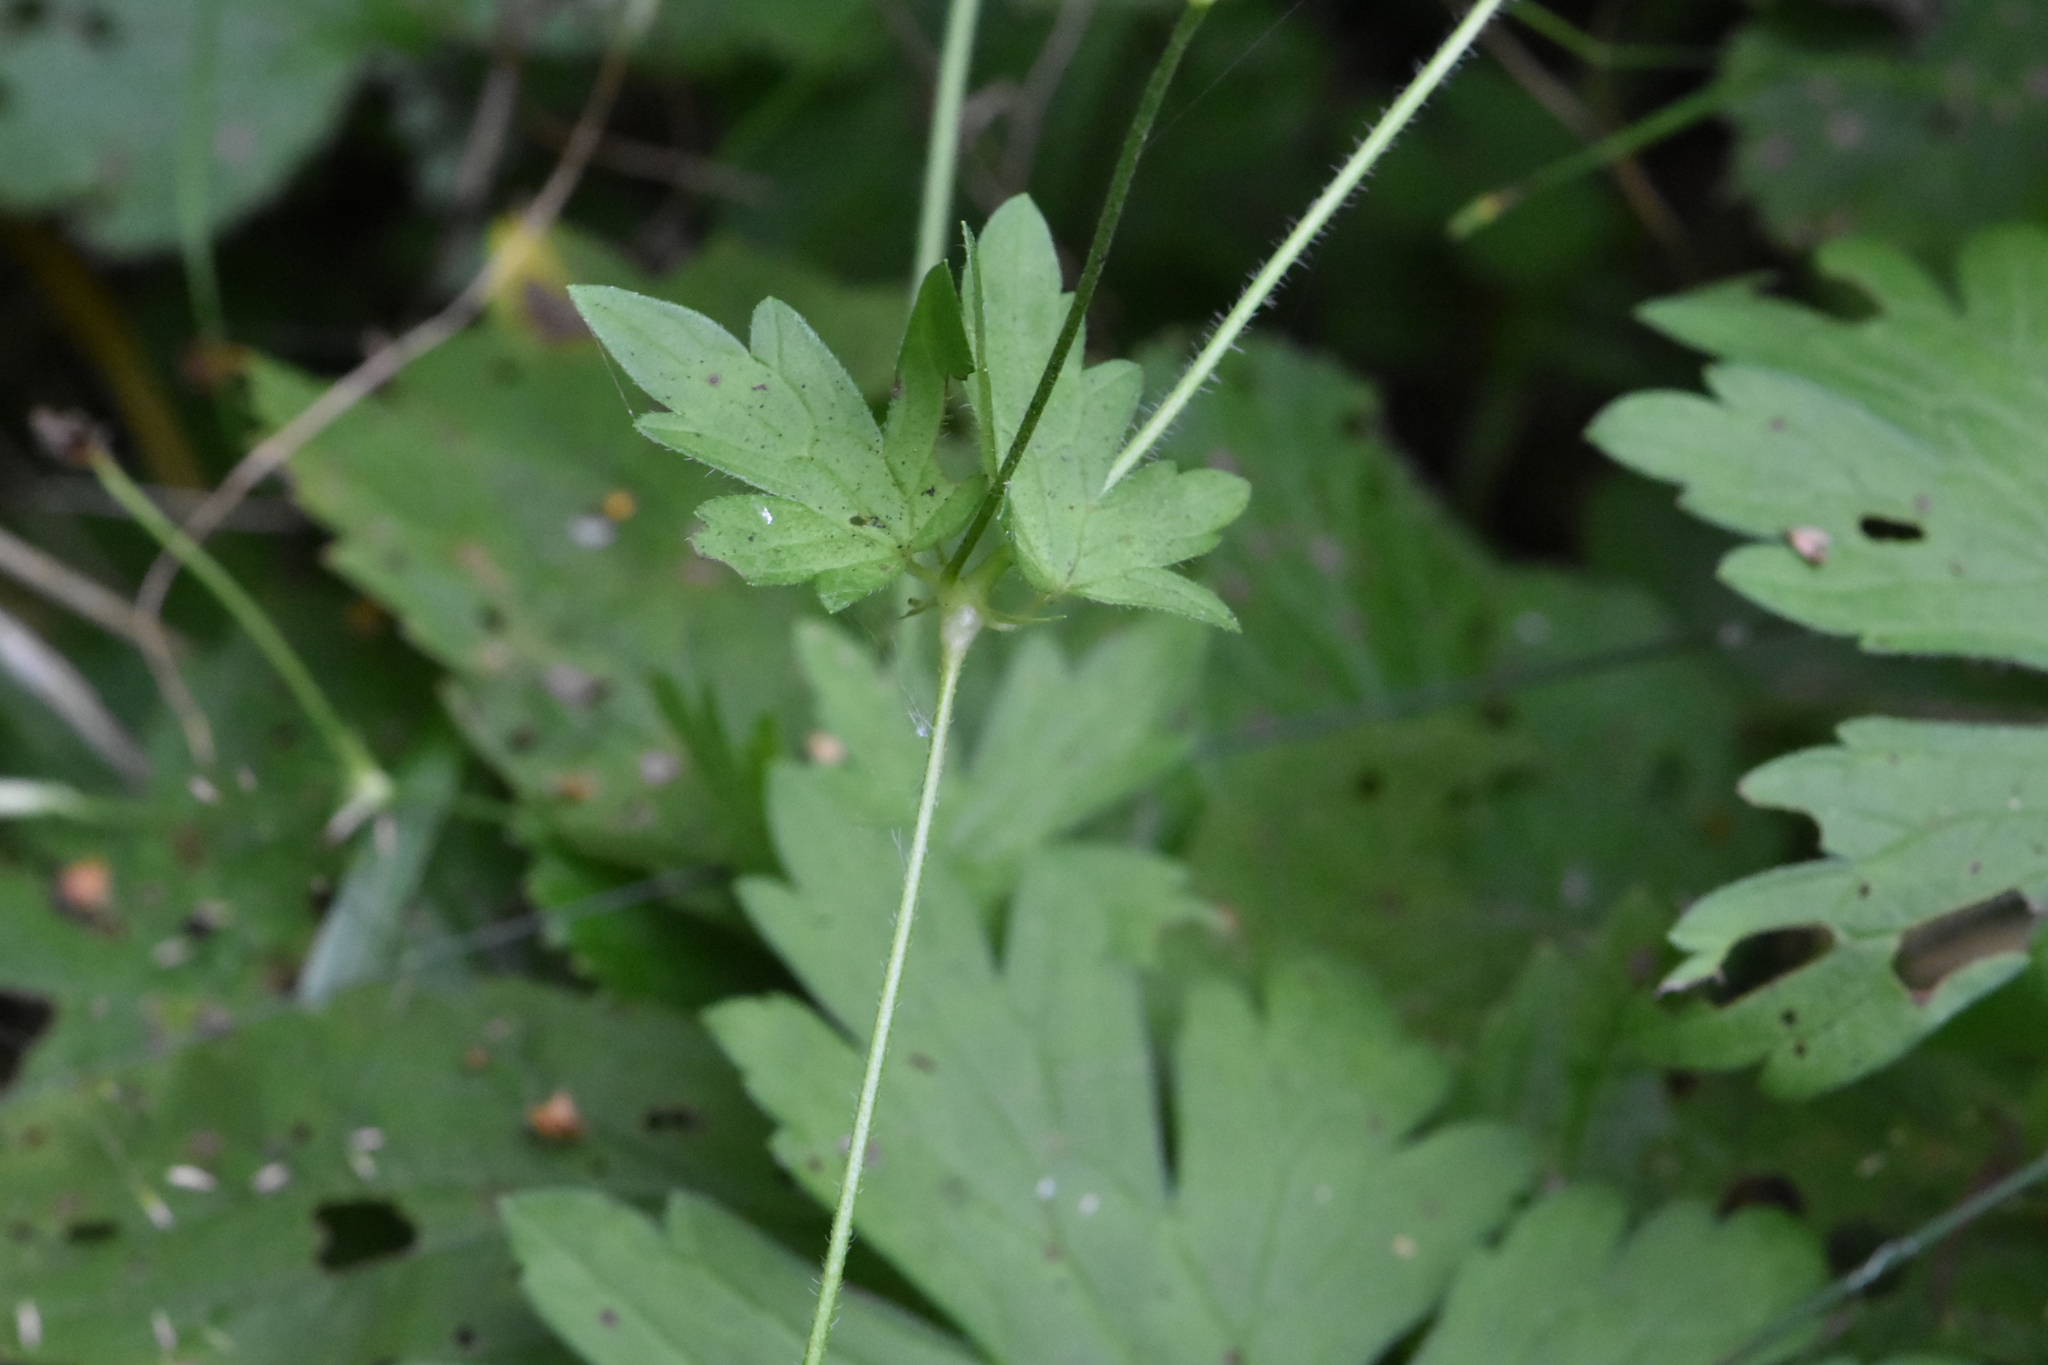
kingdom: Plantae
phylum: Tracheophyta
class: Magnoliopsida
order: Geraniales
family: Geraniaceae
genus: Geranium
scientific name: Geranium palustre
